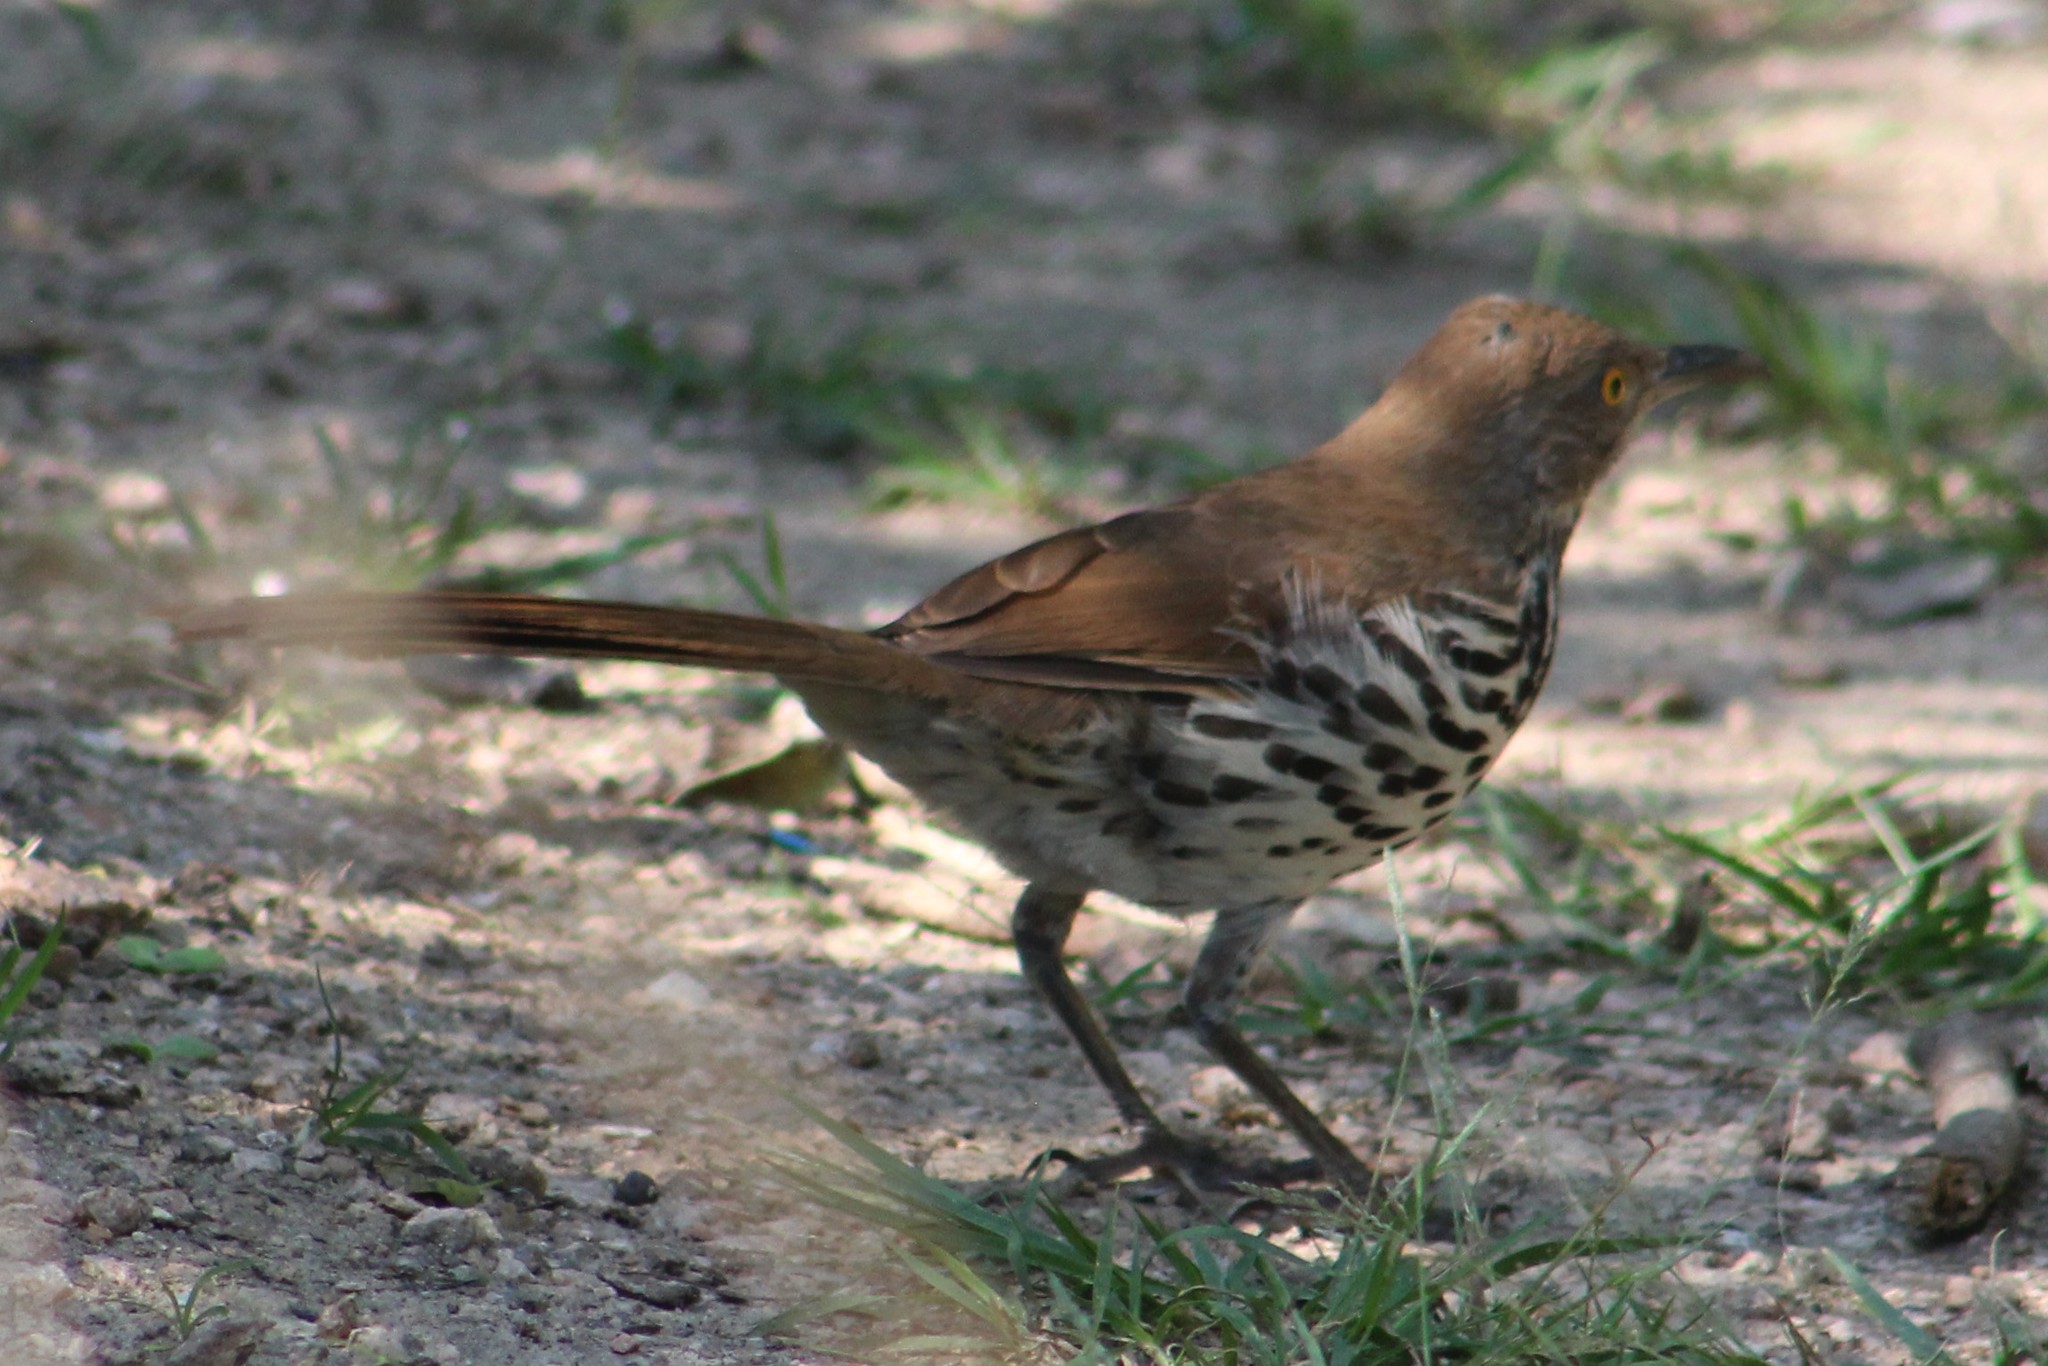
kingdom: Animalia
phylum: Chordata
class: Aves
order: Passeriformes
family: Mimidae
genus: Toxostoma
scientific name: Toxostoma longirostre
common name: Long-billed thrasher
